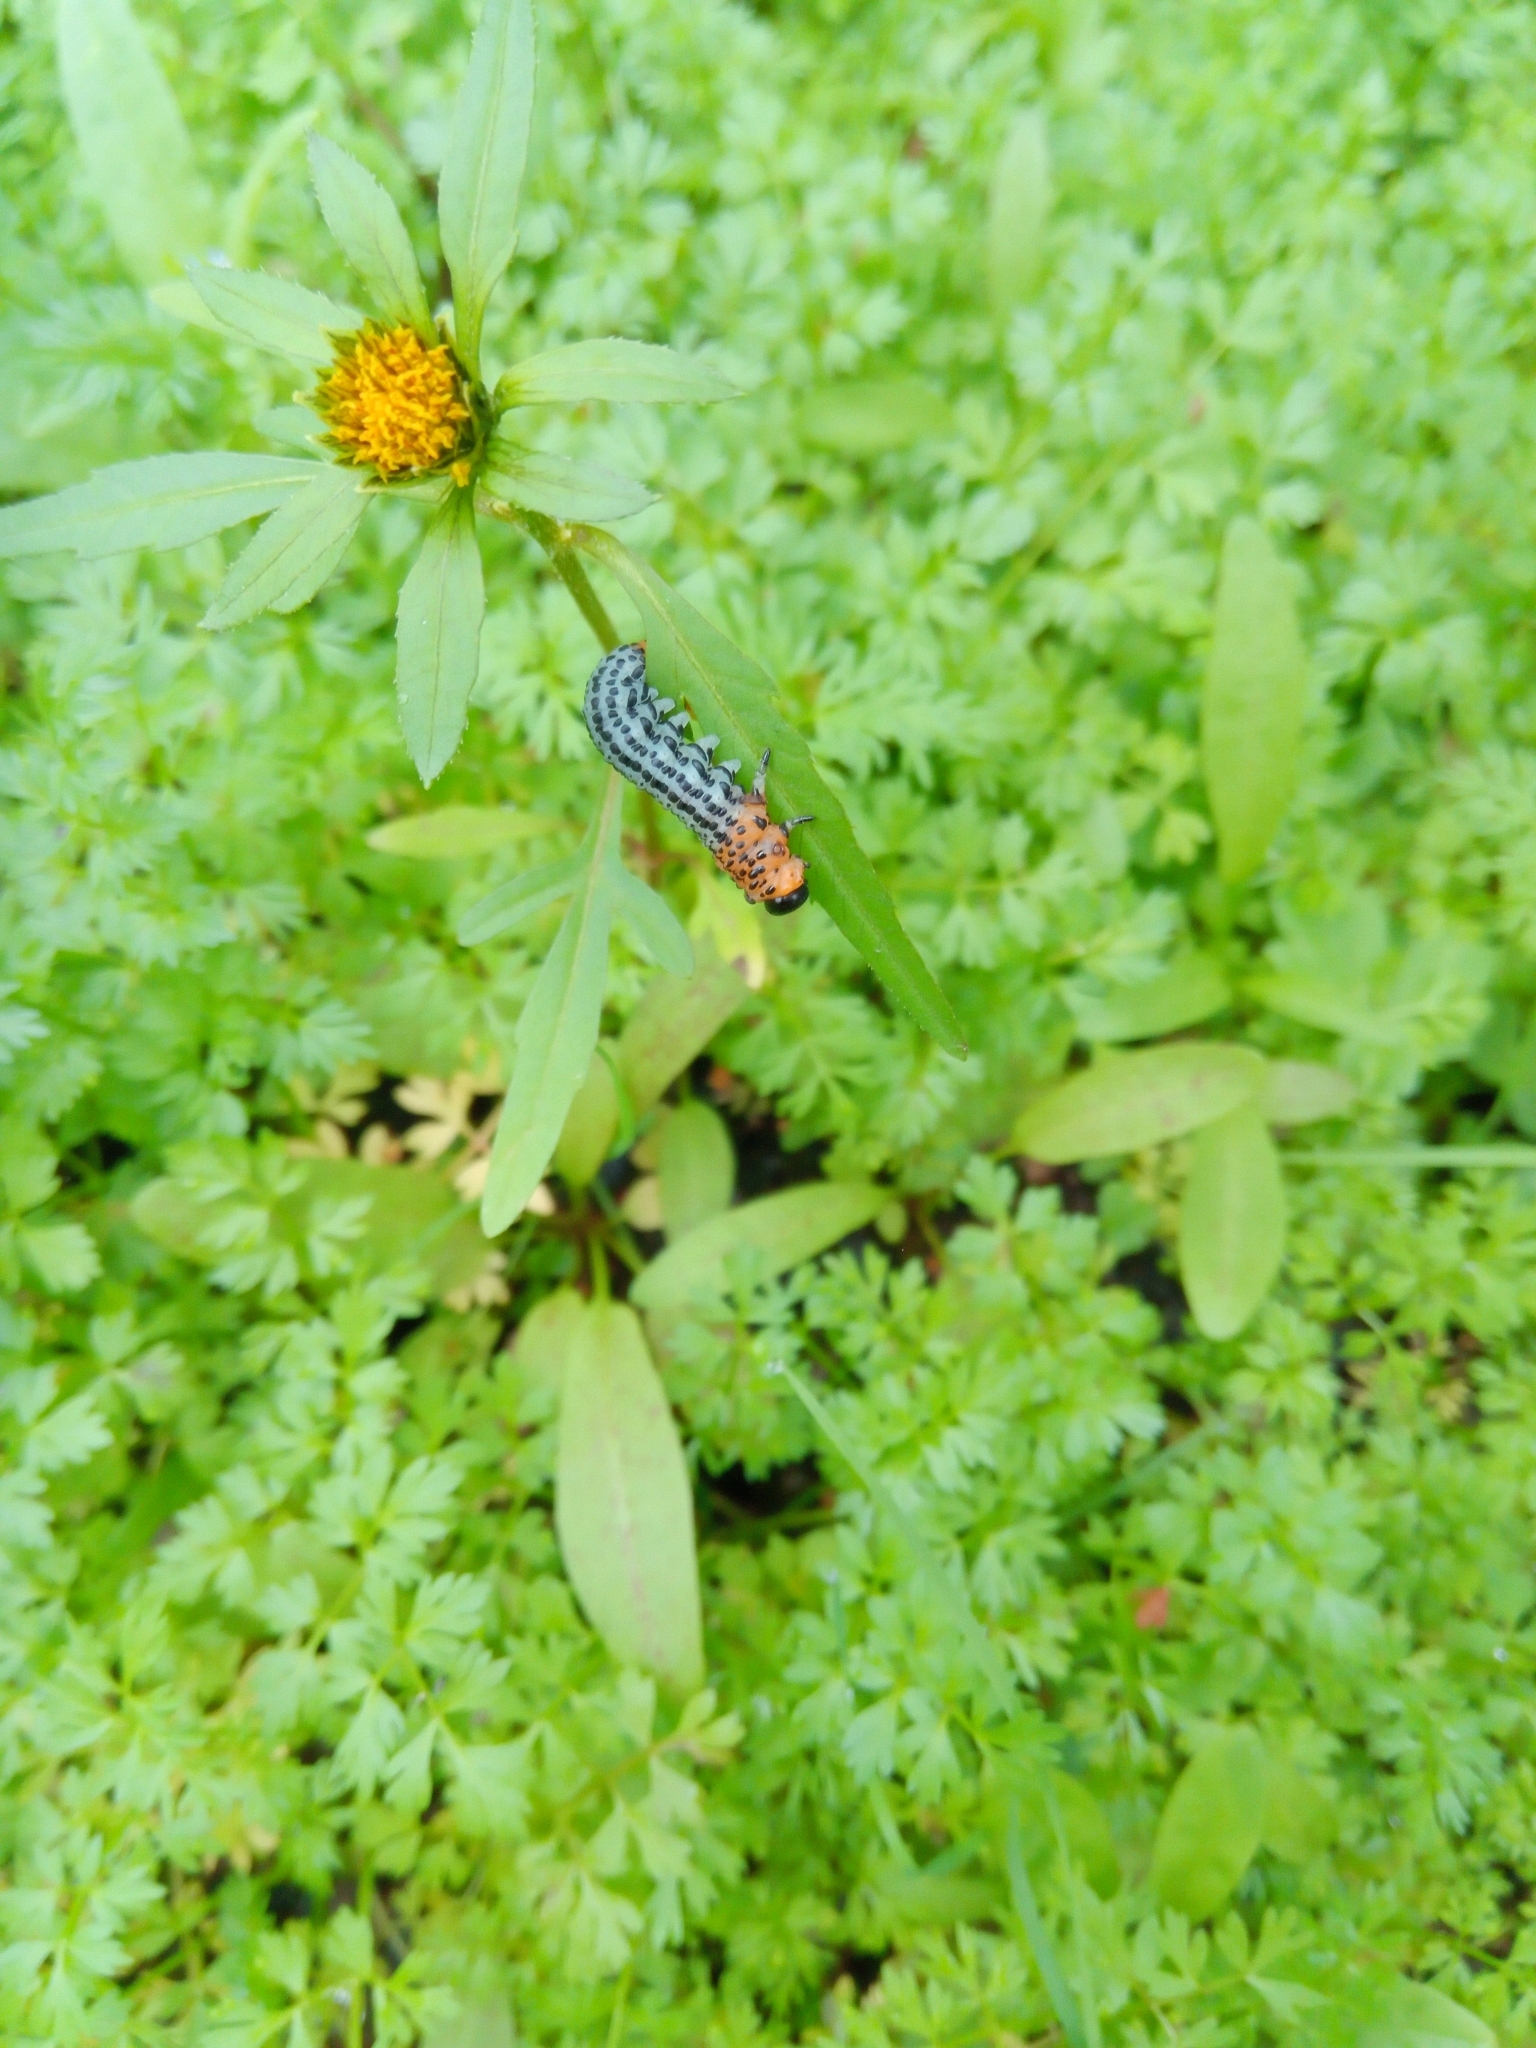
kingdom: Animalia
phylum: Arthropoda
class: Insecta
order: Hymenoptera
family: Tenthredinidae
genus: Nematus
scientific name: Nematus salicis
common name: Willow sawfly
